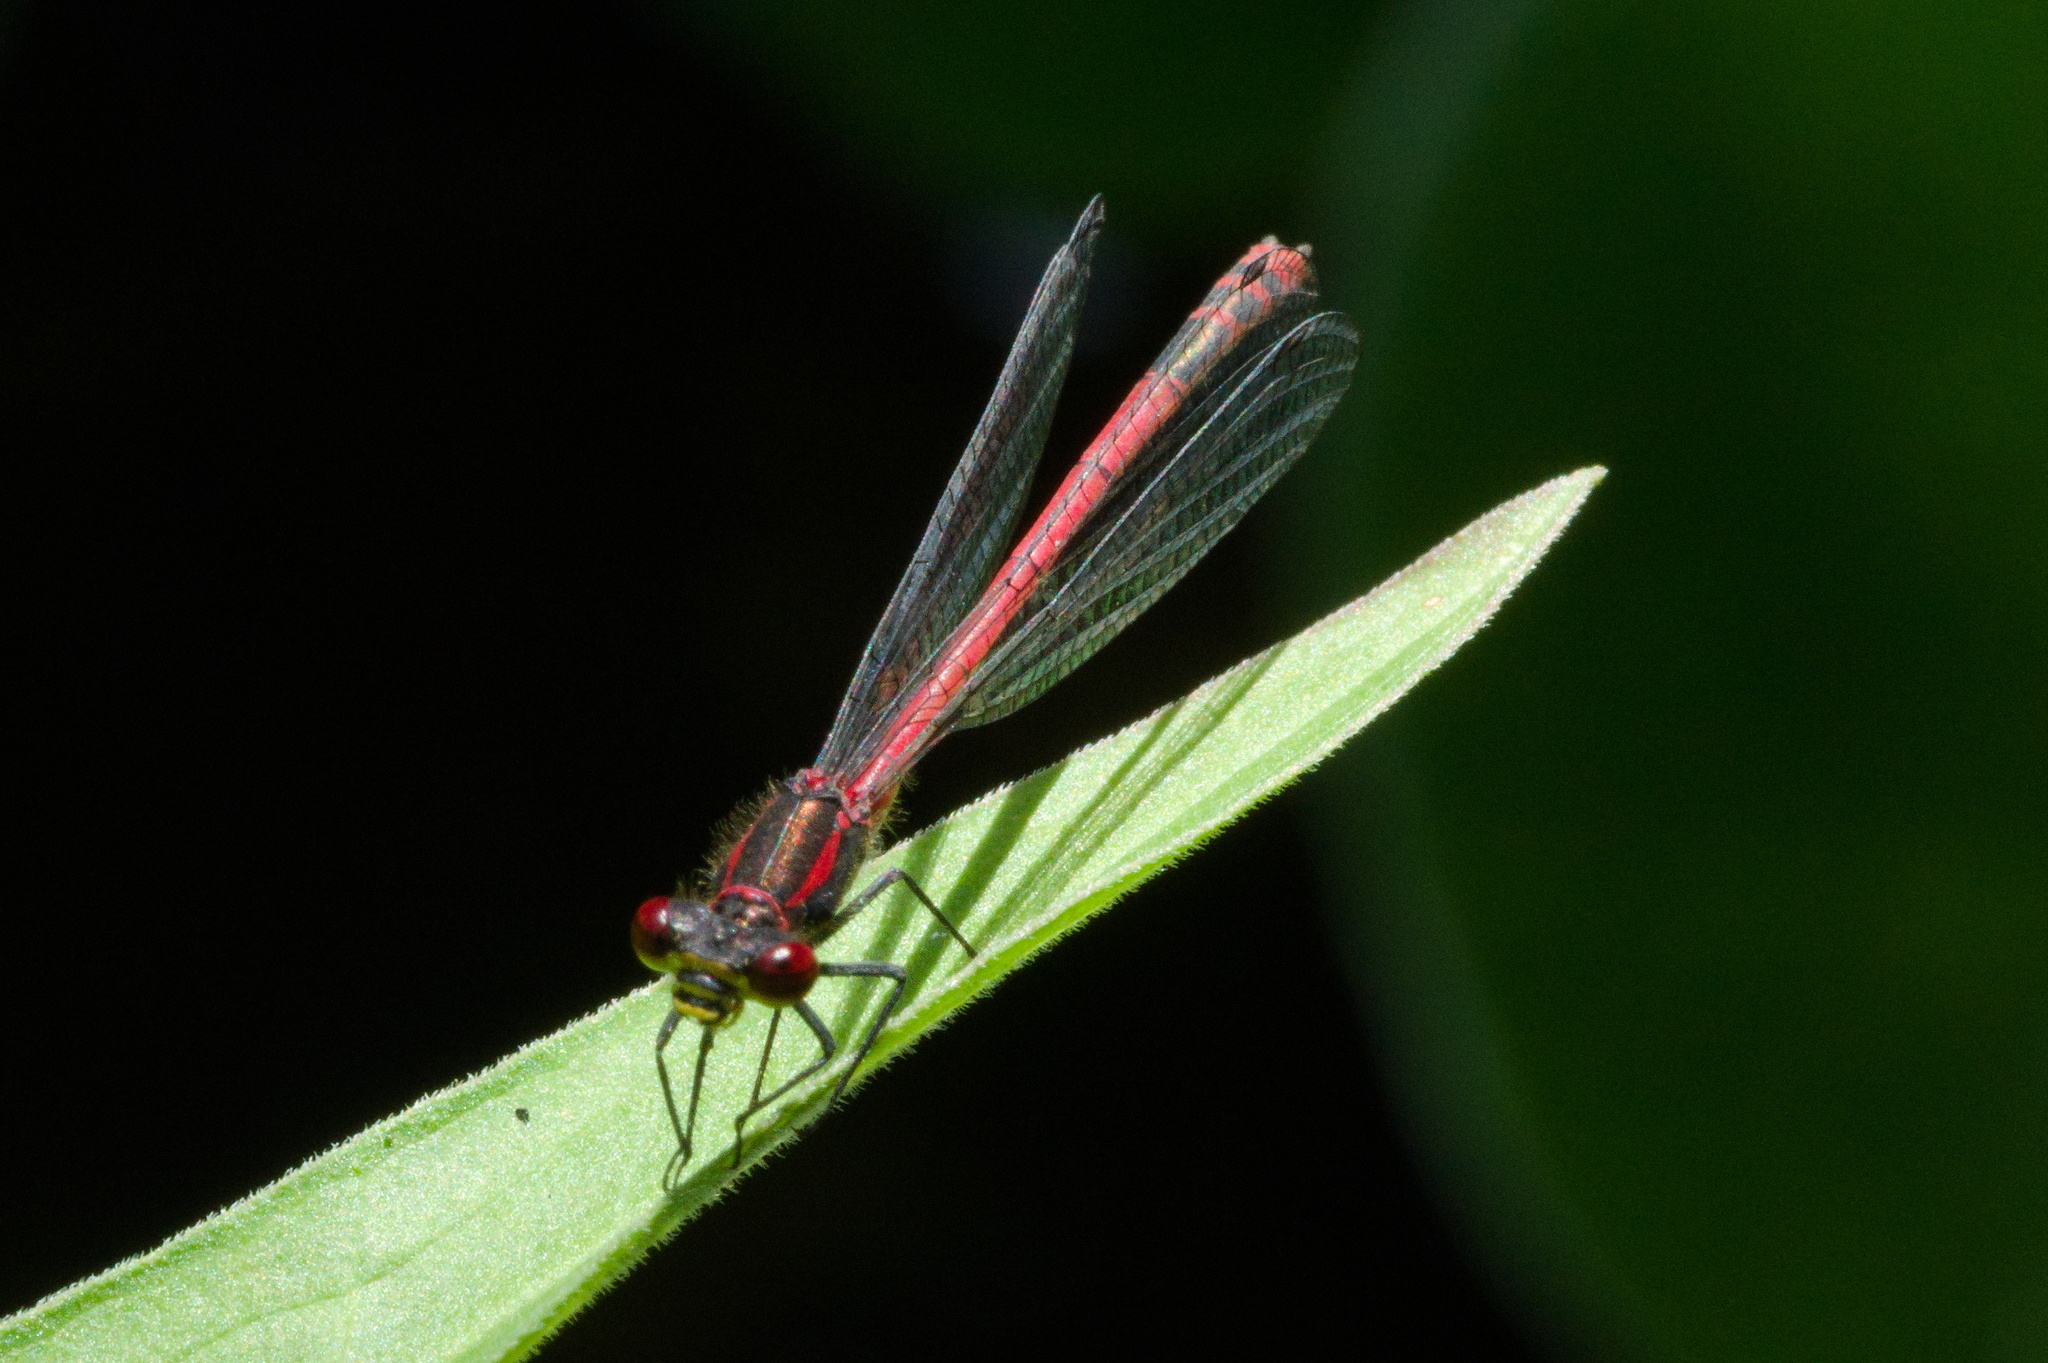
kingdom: Animalia
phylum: Arthropoda
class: Insecta
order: Odonata
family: Coenagrionidae
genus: Pyrrhosoma
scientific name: Pyrrhosoma nymphula
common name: Large red damsel
